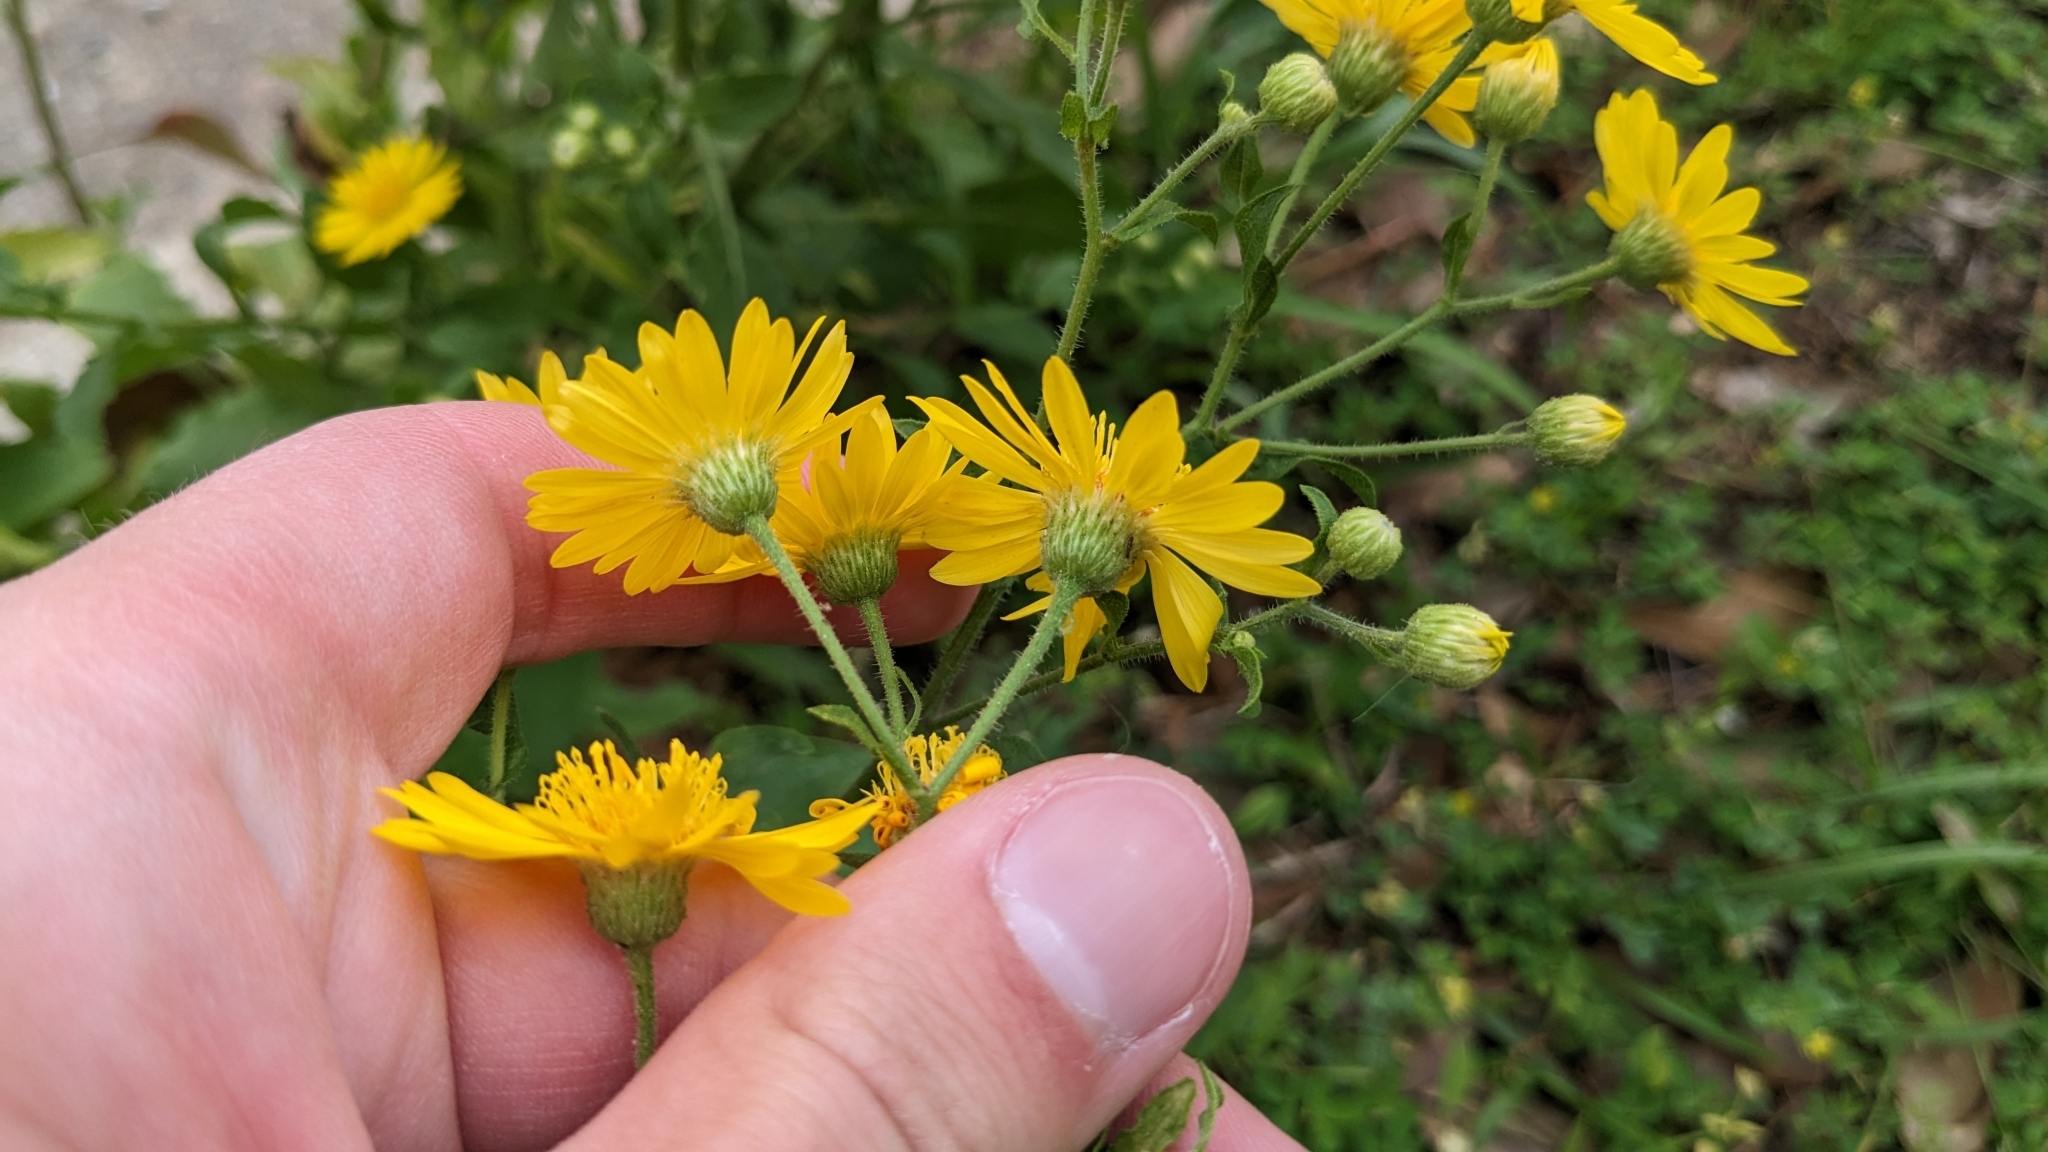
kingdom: Plantae
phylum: Tracheophyta
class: Magnoliopsida
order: Asterales
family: Asteraceae
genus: Heterotheca
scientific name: Heterotheca subaxillaris
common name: Camphorweed
